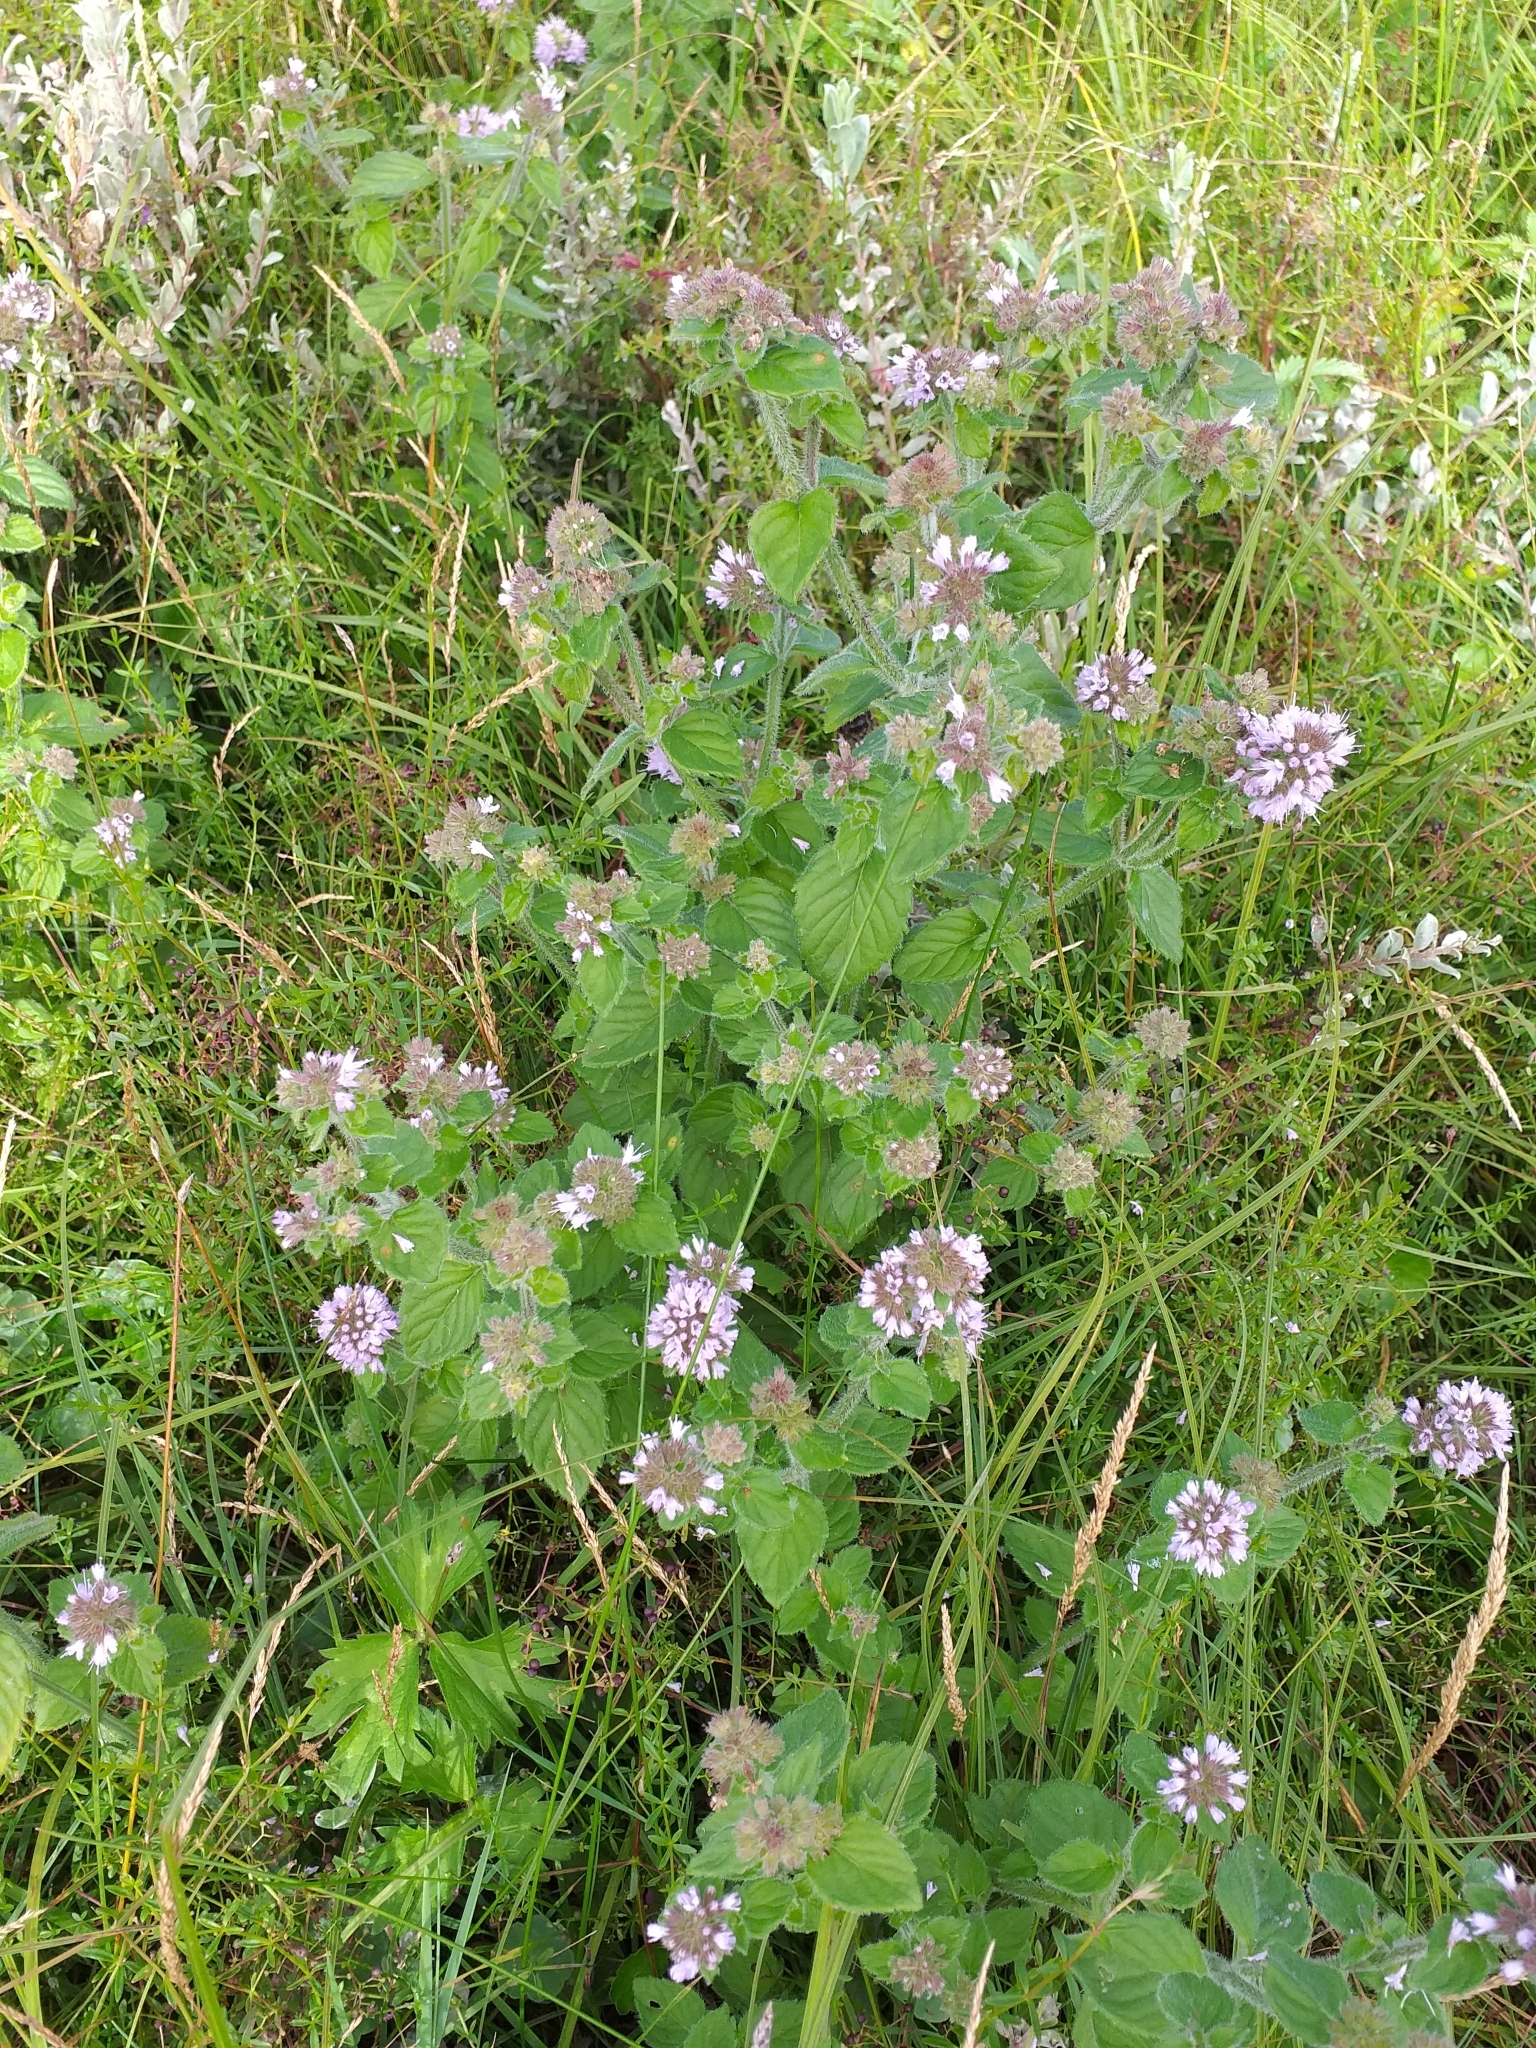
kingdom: Plantae
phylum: Tracheophyta
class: Magnoliopsida
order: Lamiales
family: Lamiaceae
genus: Mentha
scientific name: Mentha aquatica
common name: Water mint
